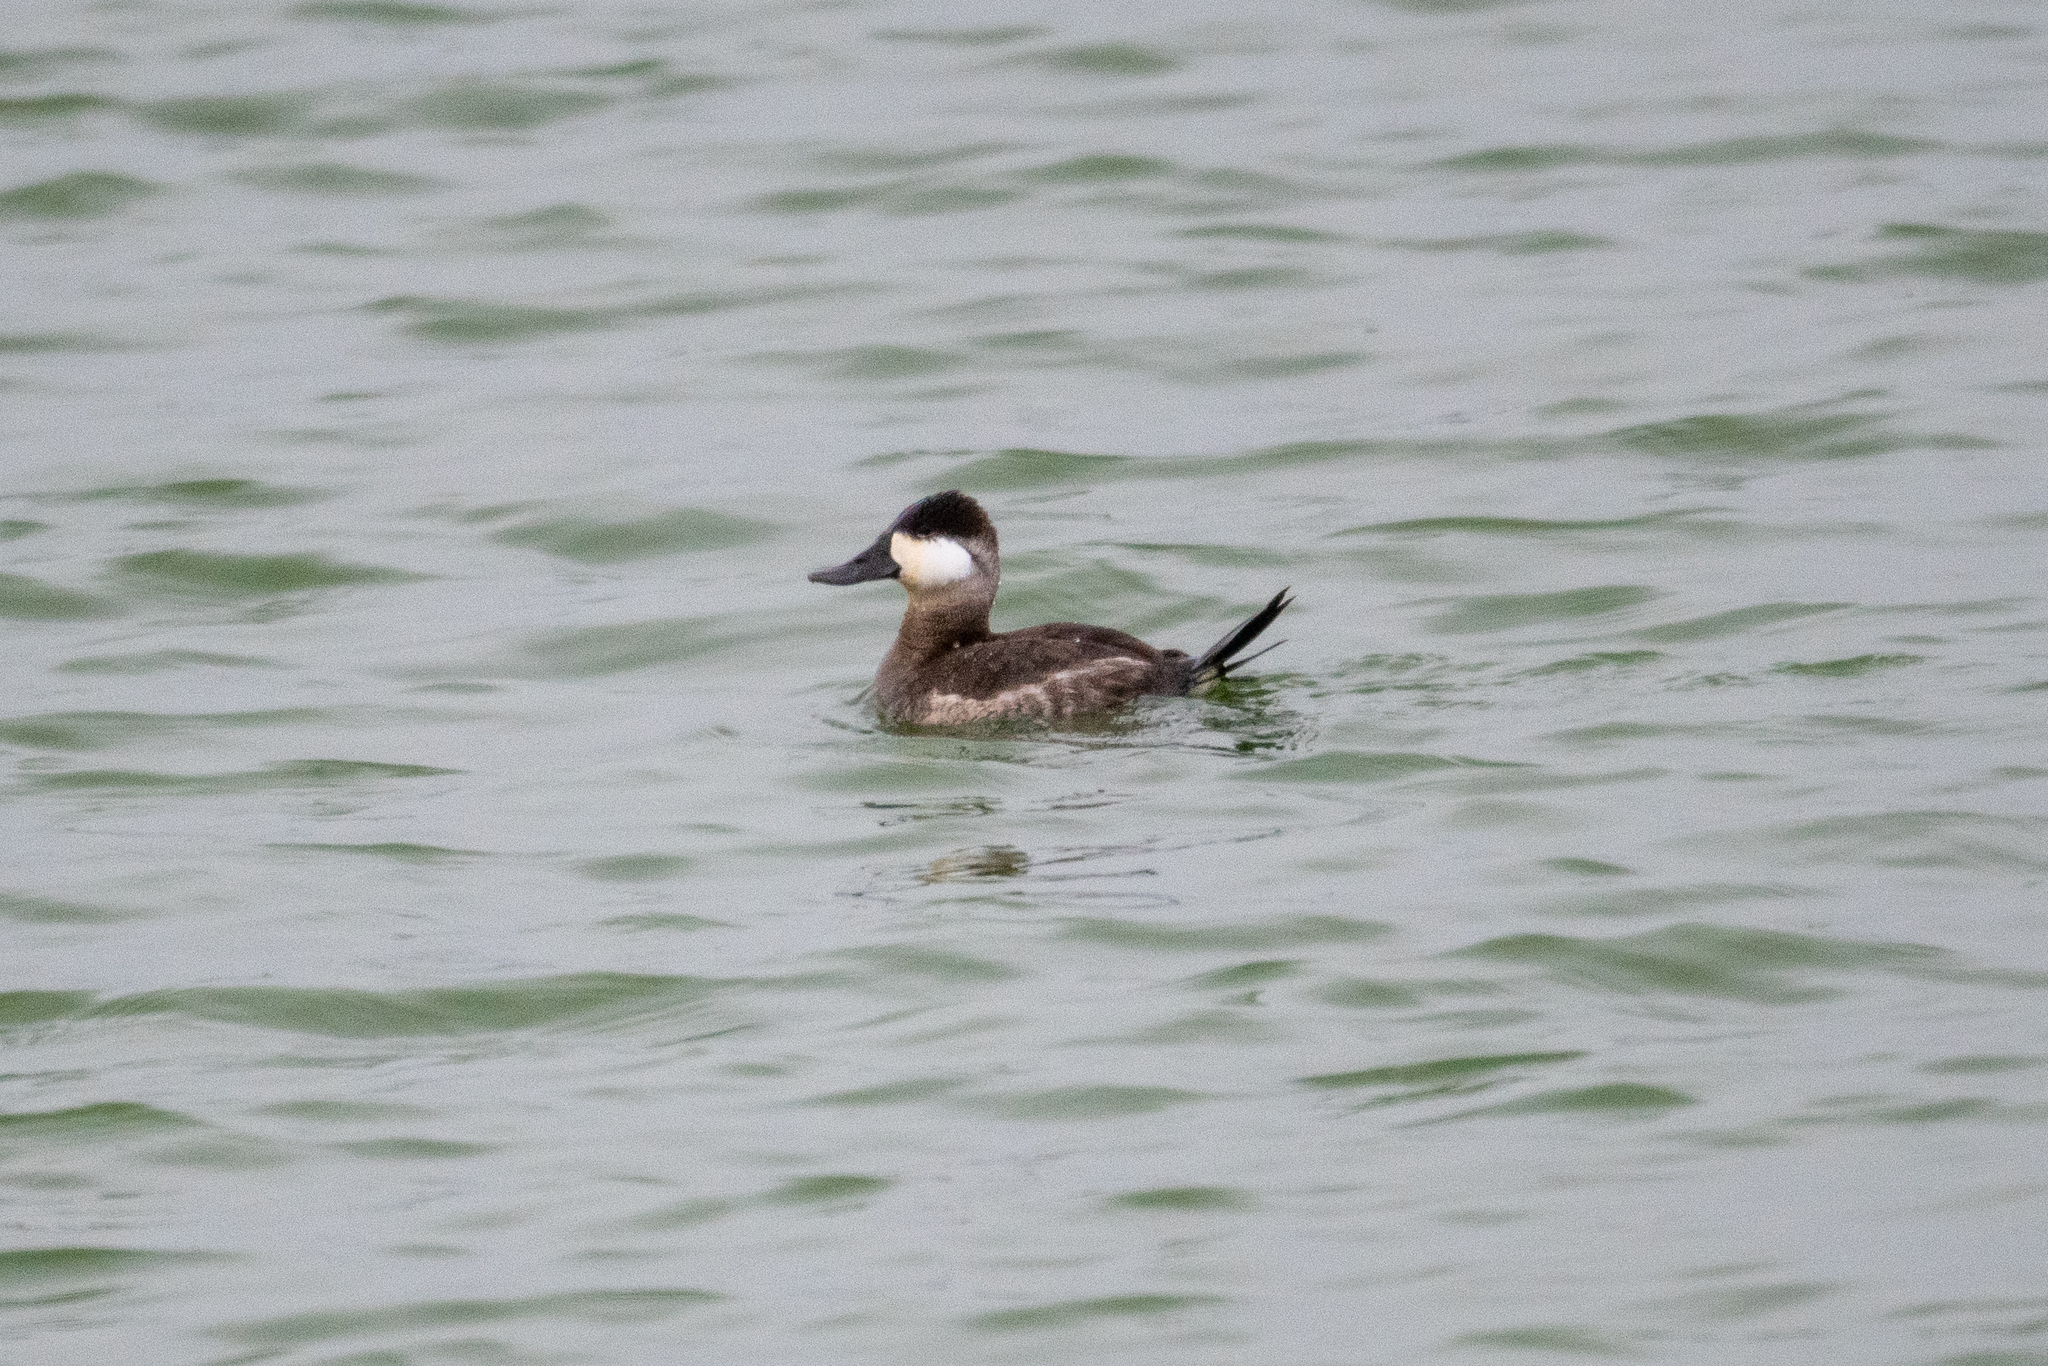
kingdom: Animalia
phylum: Chordata
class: Aves
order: Anseriformes
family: Anatidae
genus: Oxyura
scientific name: Oxyura jamaicensis
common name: Ruddy duck
